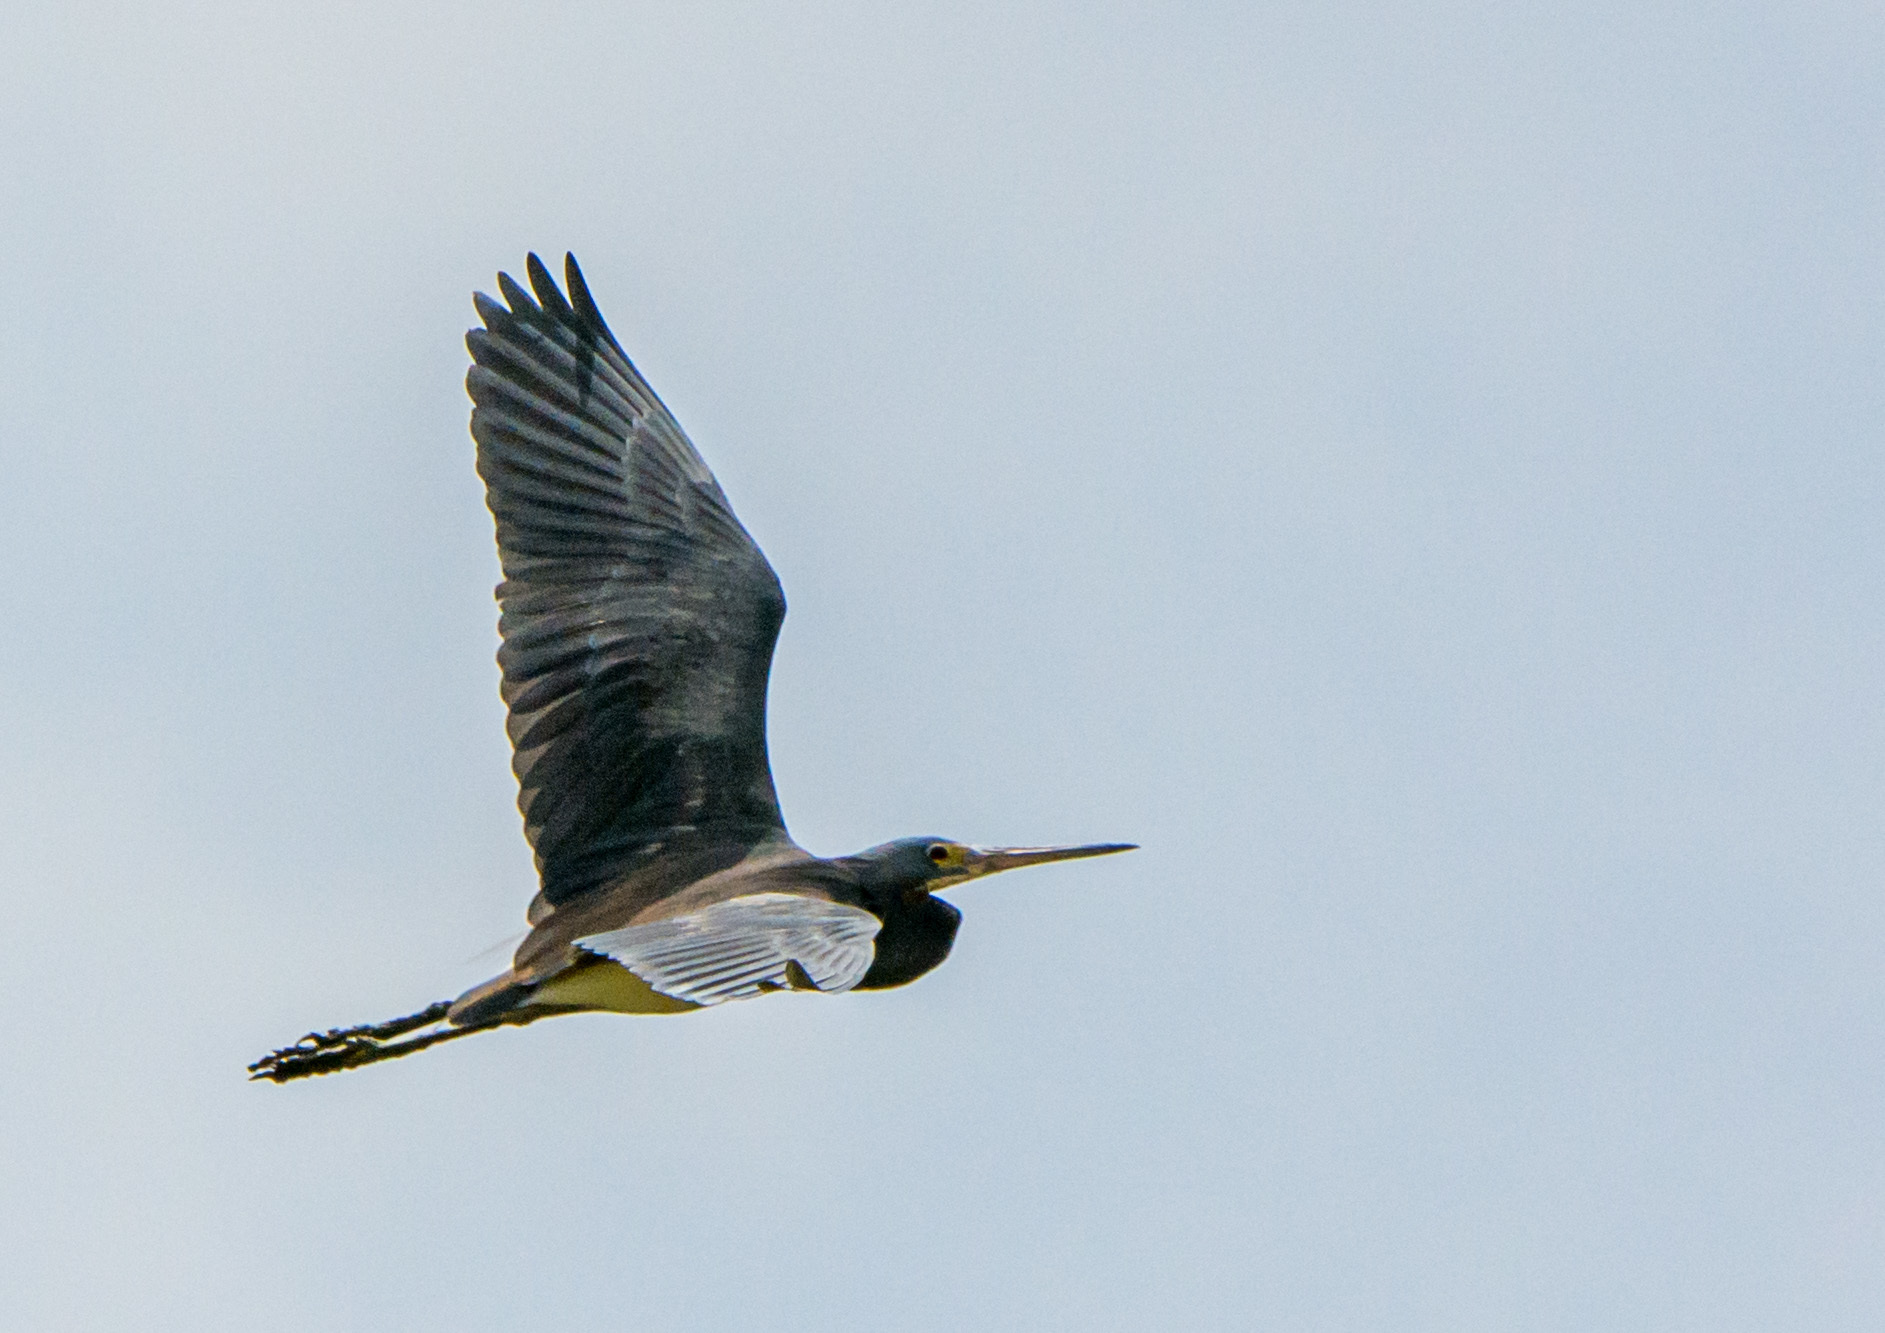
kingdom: Animalia
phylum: Chordata
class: Aves
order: Pelecaniformes
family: Ardeidae
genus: Egretta
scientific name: Egretta tricolor
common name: Tricolored heron
